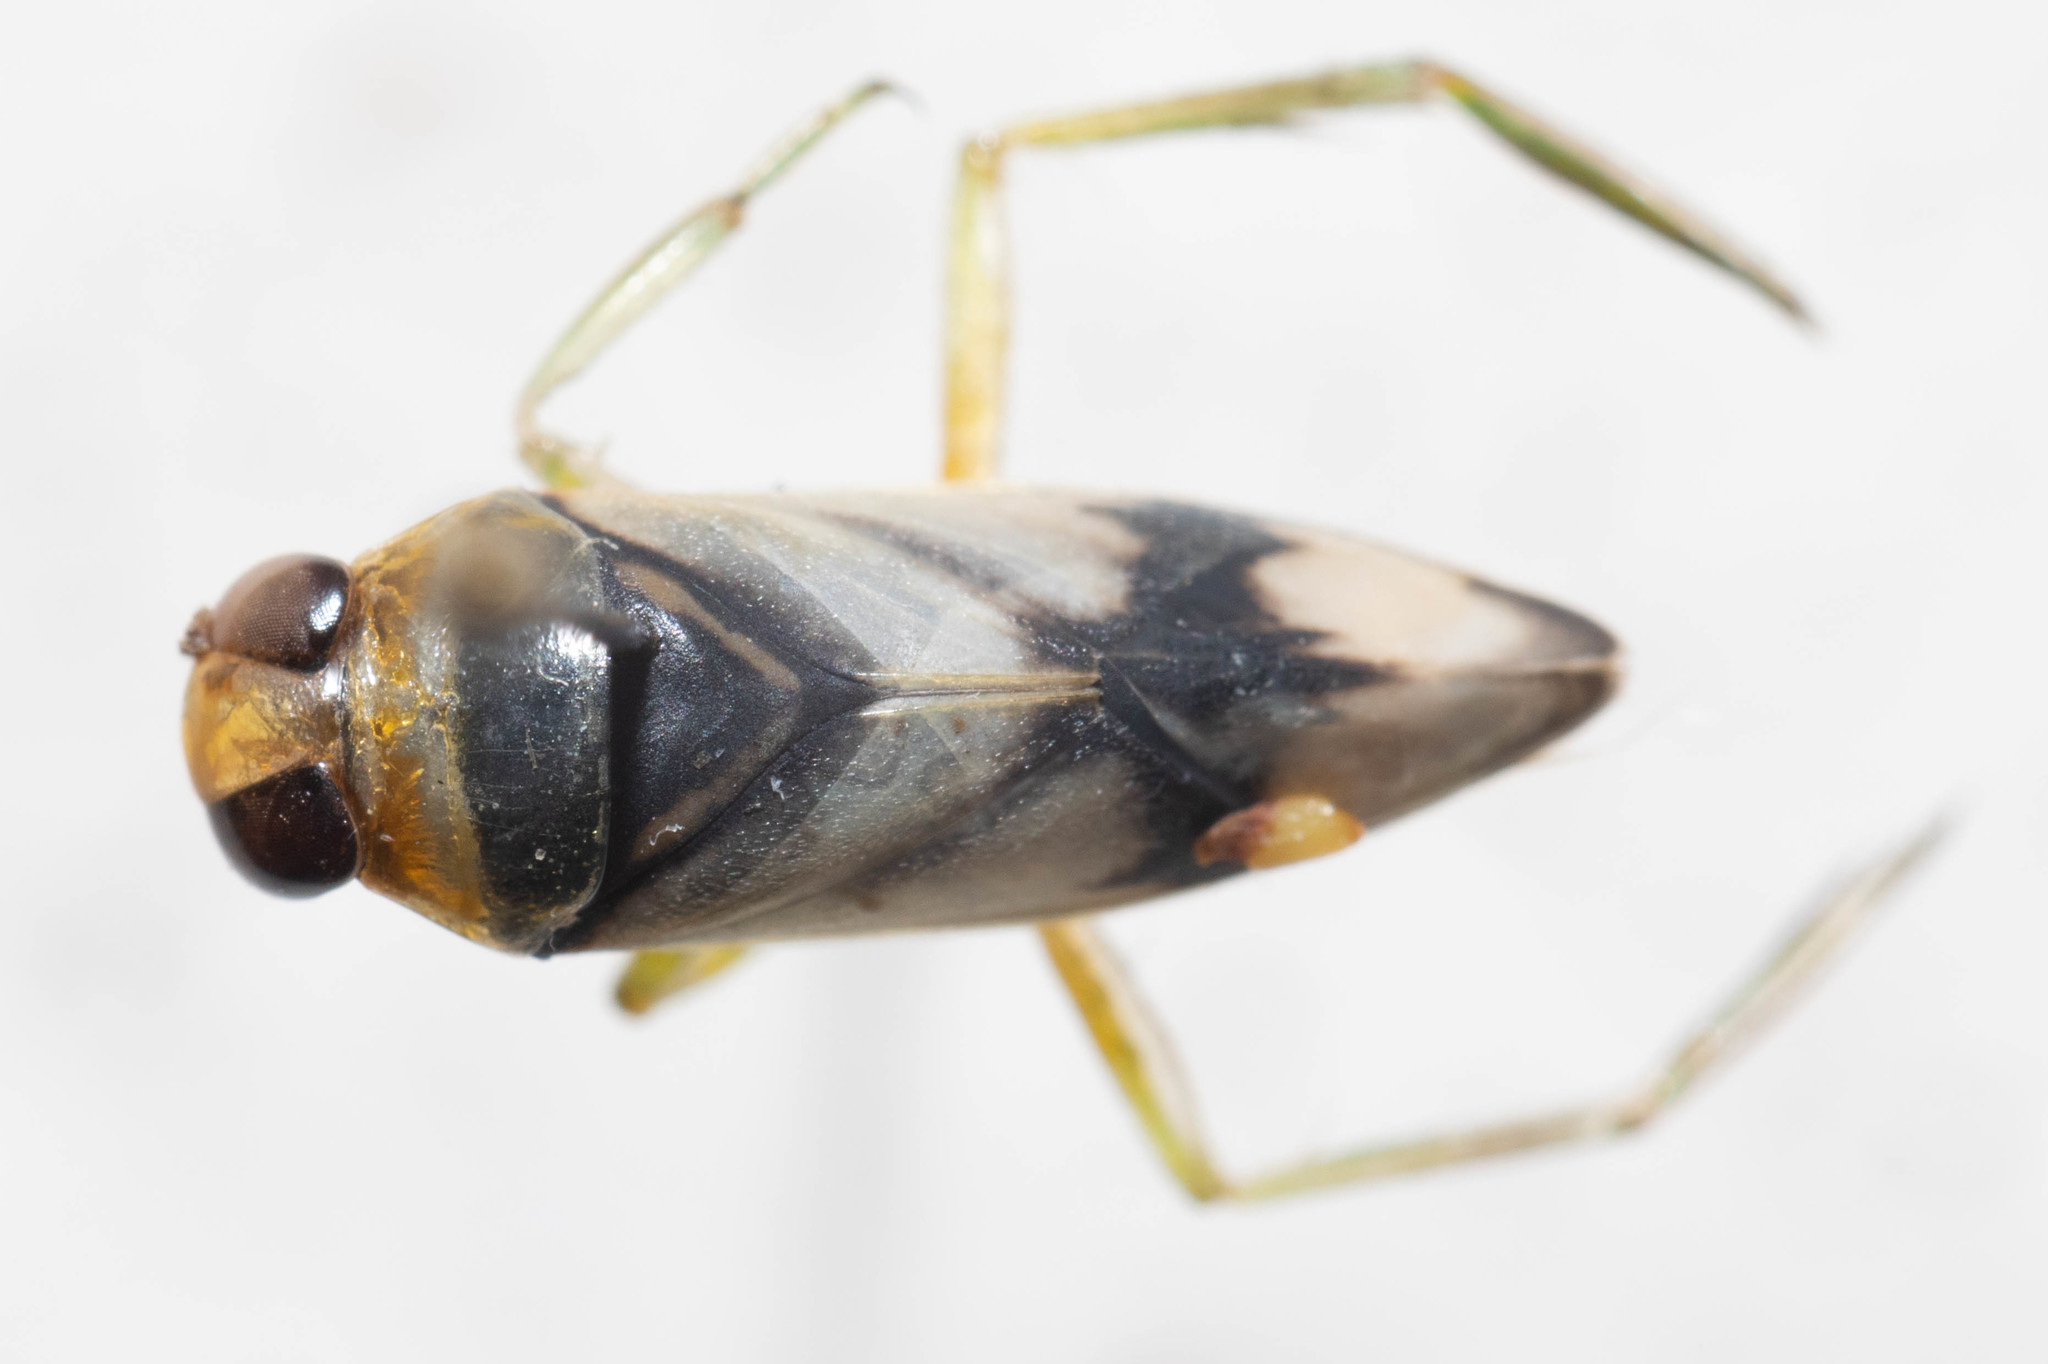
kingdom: Animalia
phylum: Arthropoda
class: Insecta
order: Hemiptera
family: Notonectidae
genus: Notonecta
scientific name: Notonecta unifasciata
